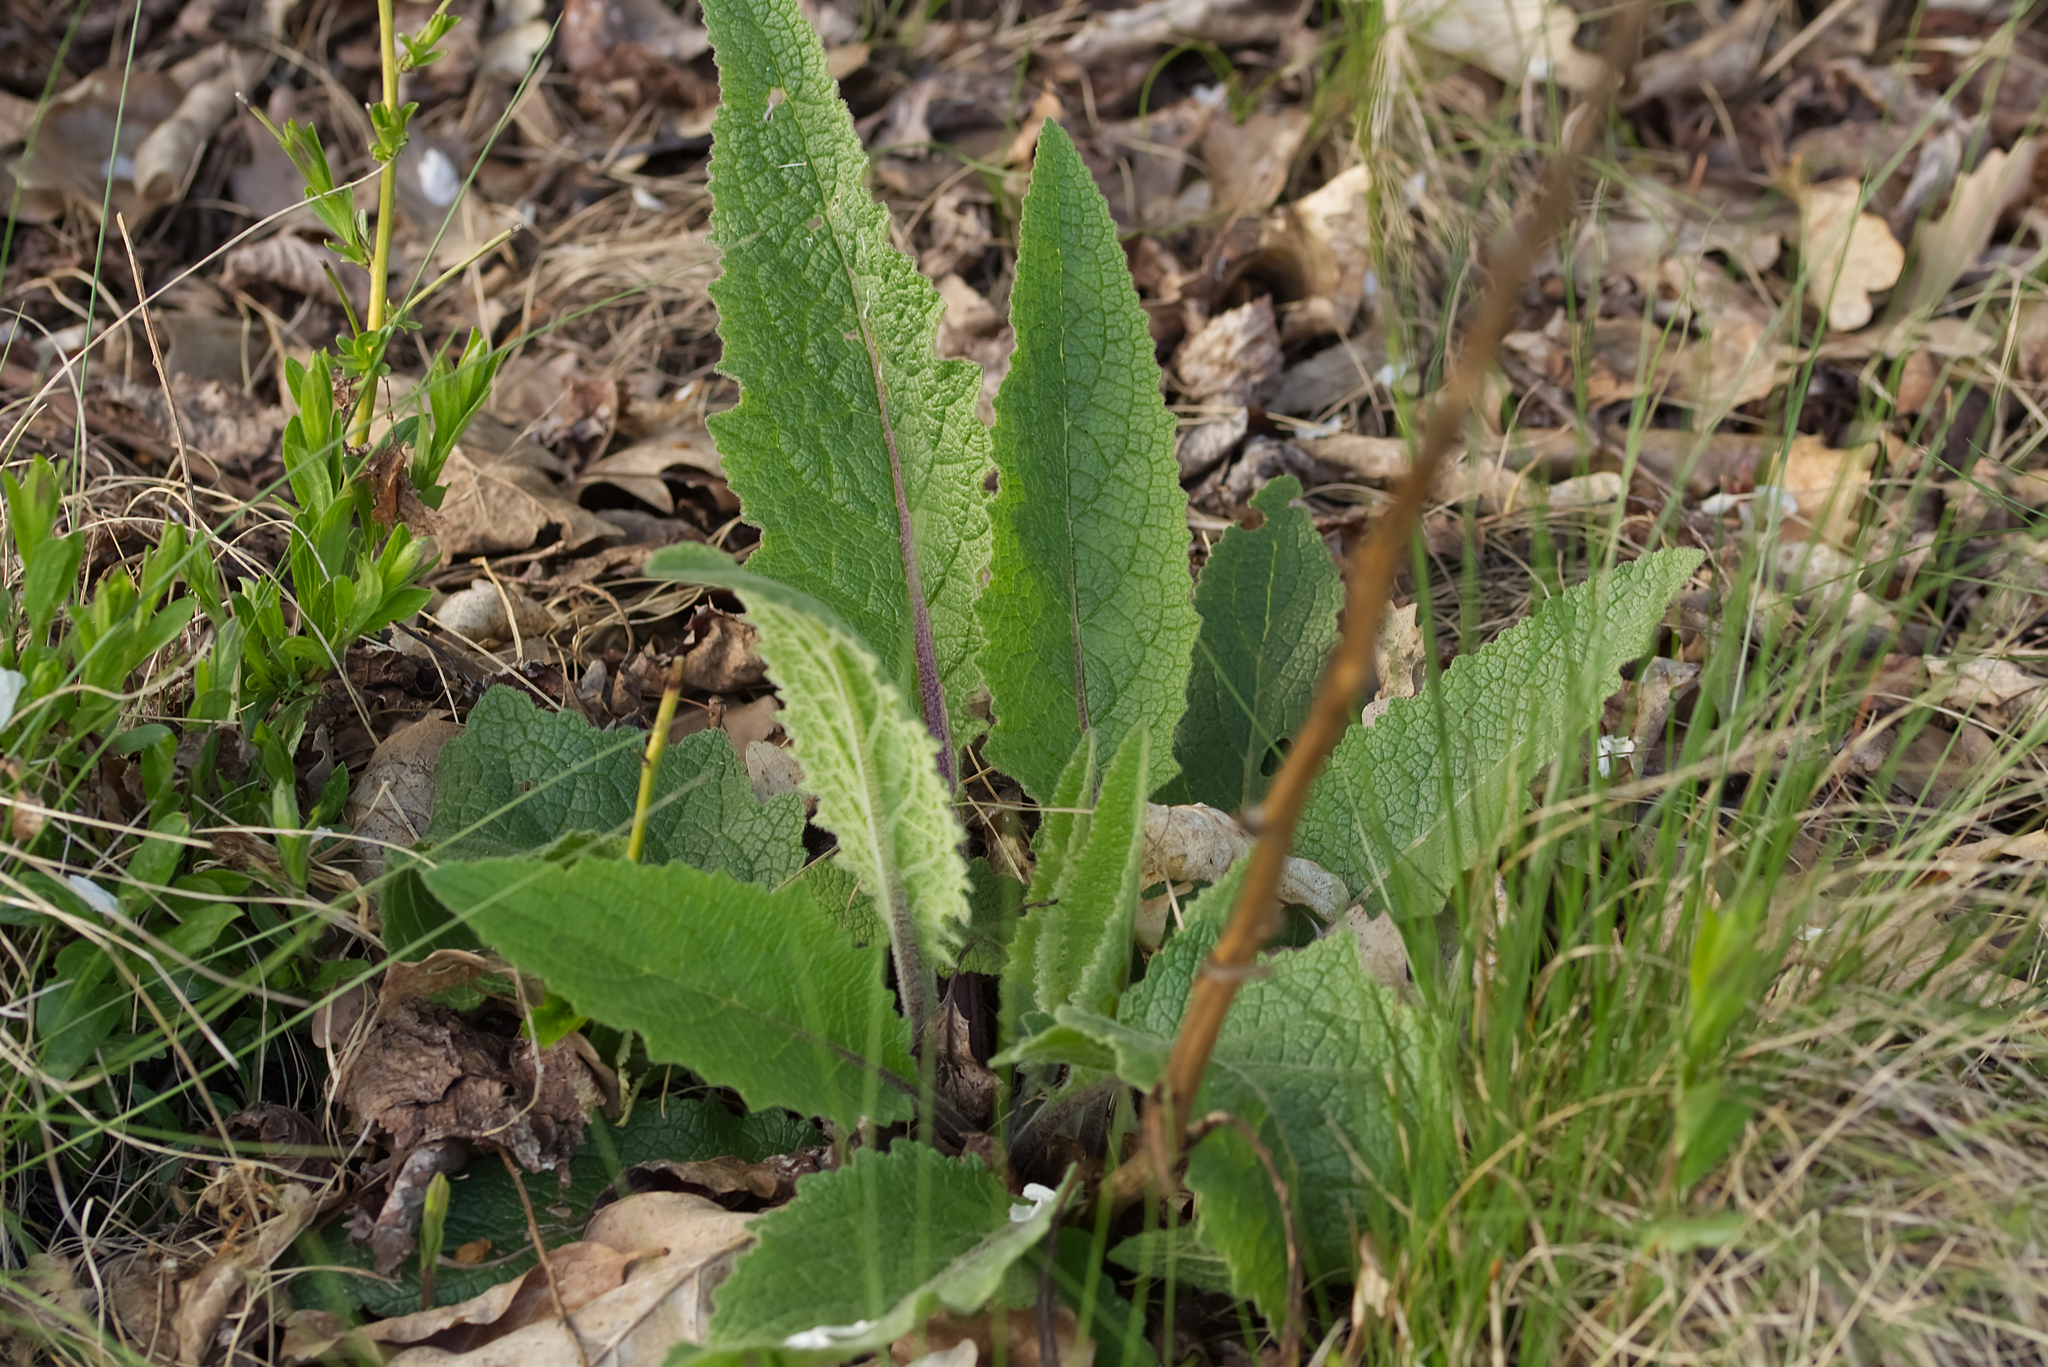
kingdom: Plantae
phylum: Tracheophyta
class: Magnoliopsida
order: Lamiales
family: Scrophulariaceae
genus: Verbascum
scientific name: Verbascum chaixii
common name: Nettle-leaved mullein
